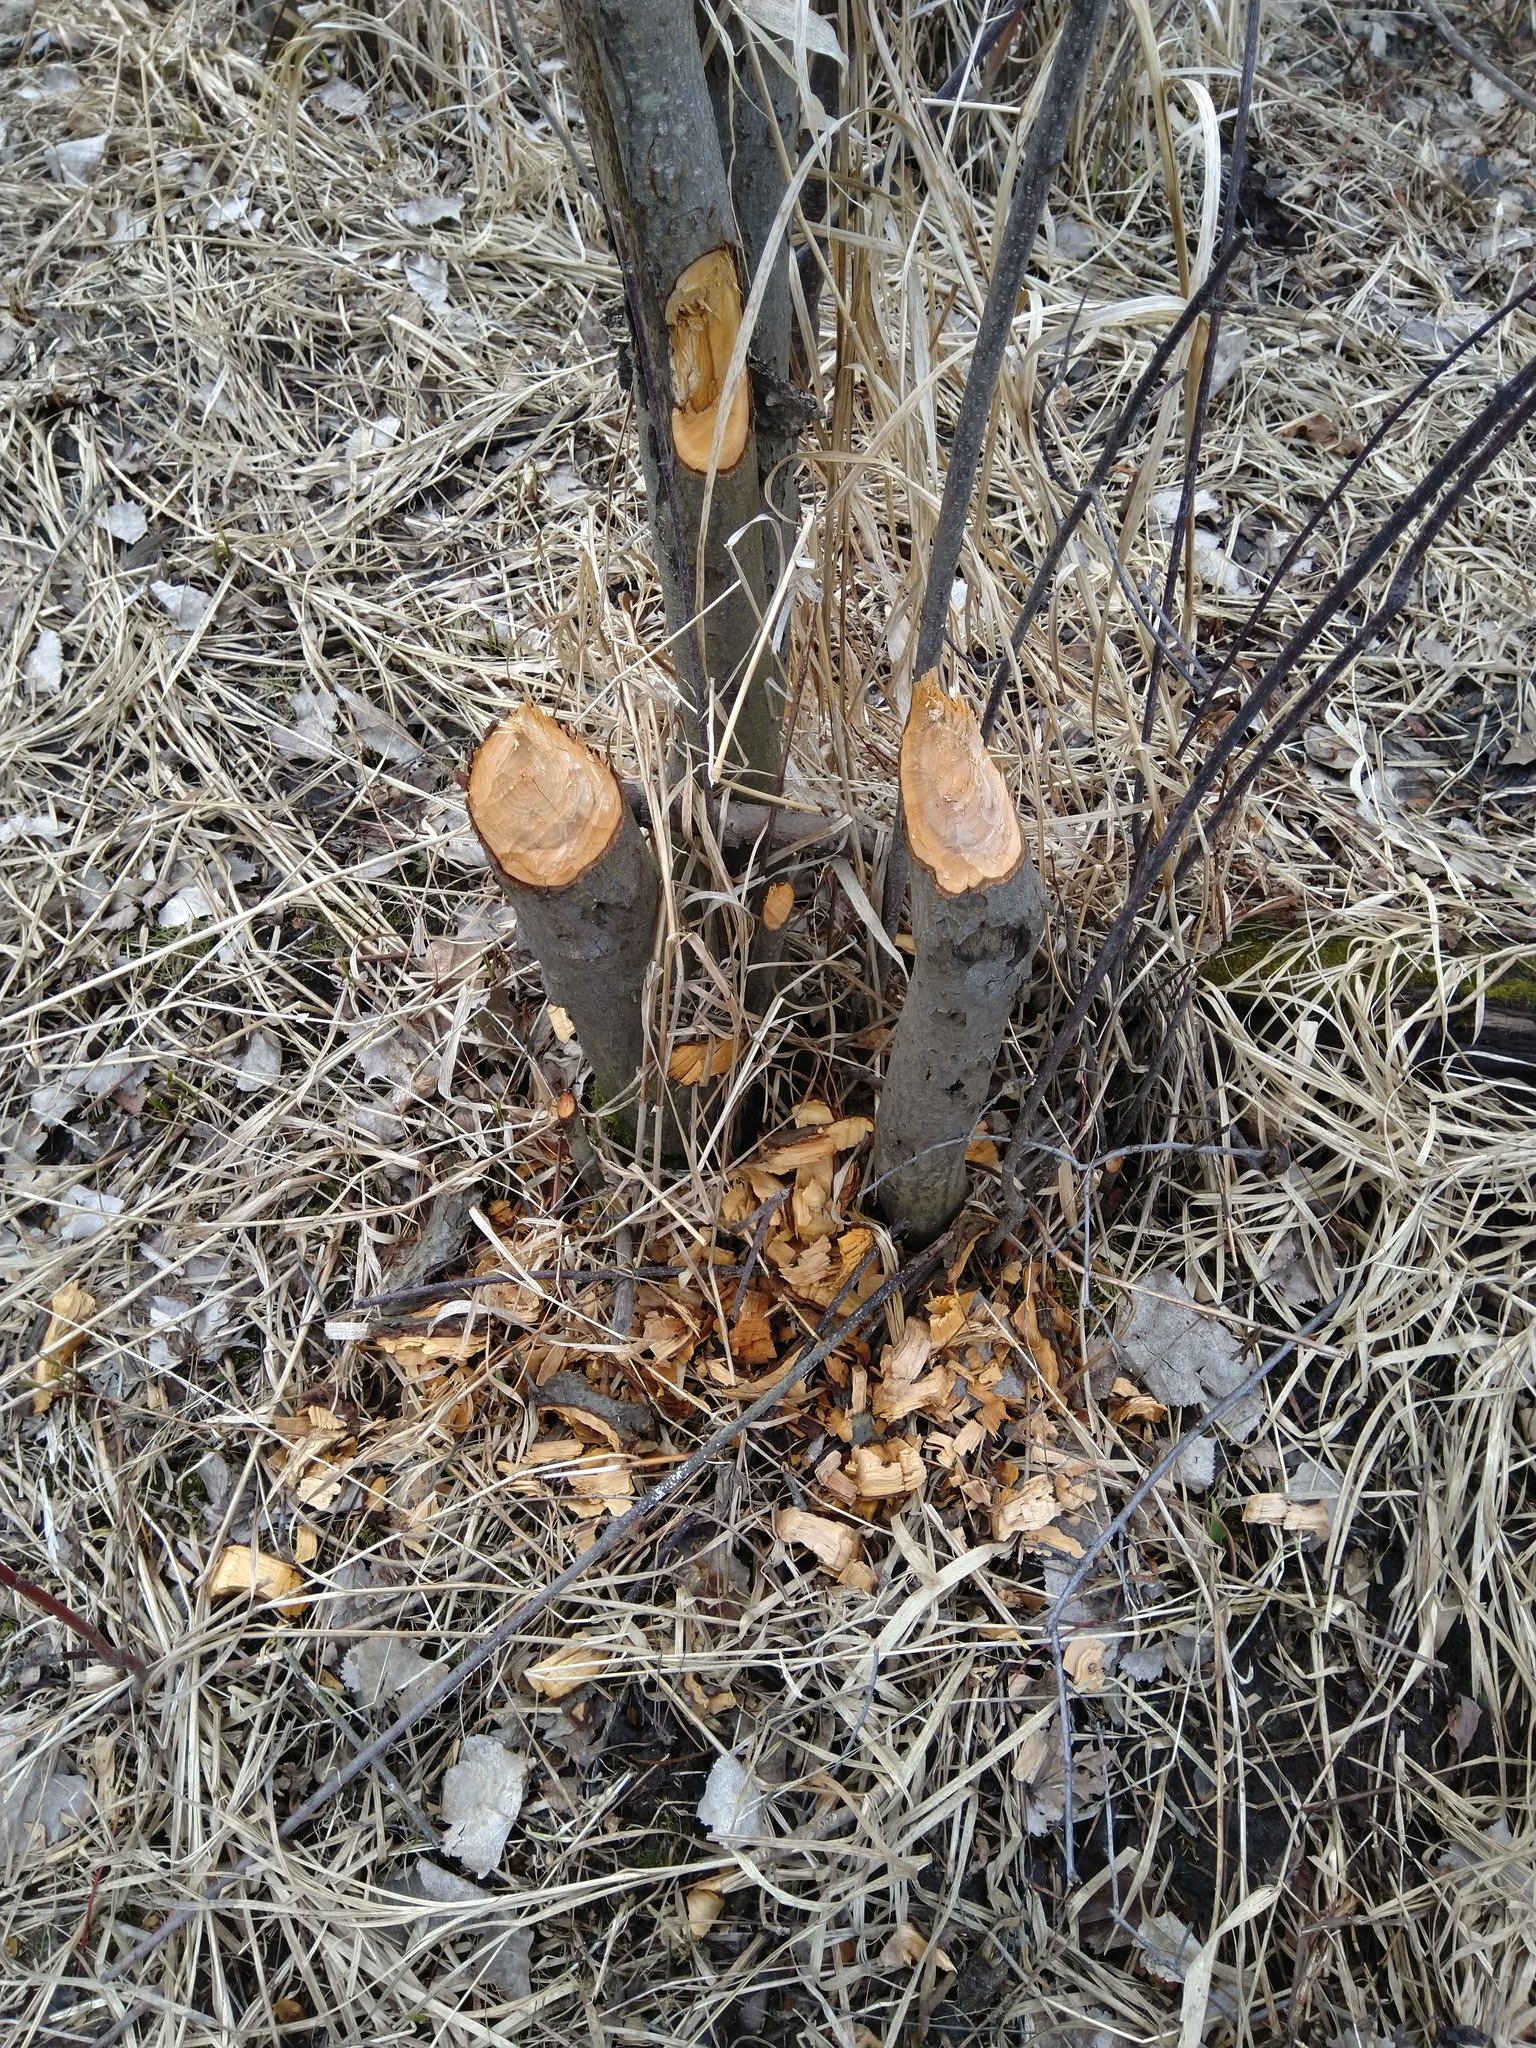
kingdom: Animalia
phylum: Chordata
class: Mammalia
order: Rodentia
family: Castoridae
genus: Castor
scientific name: Castor canadensis
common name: American beaver
